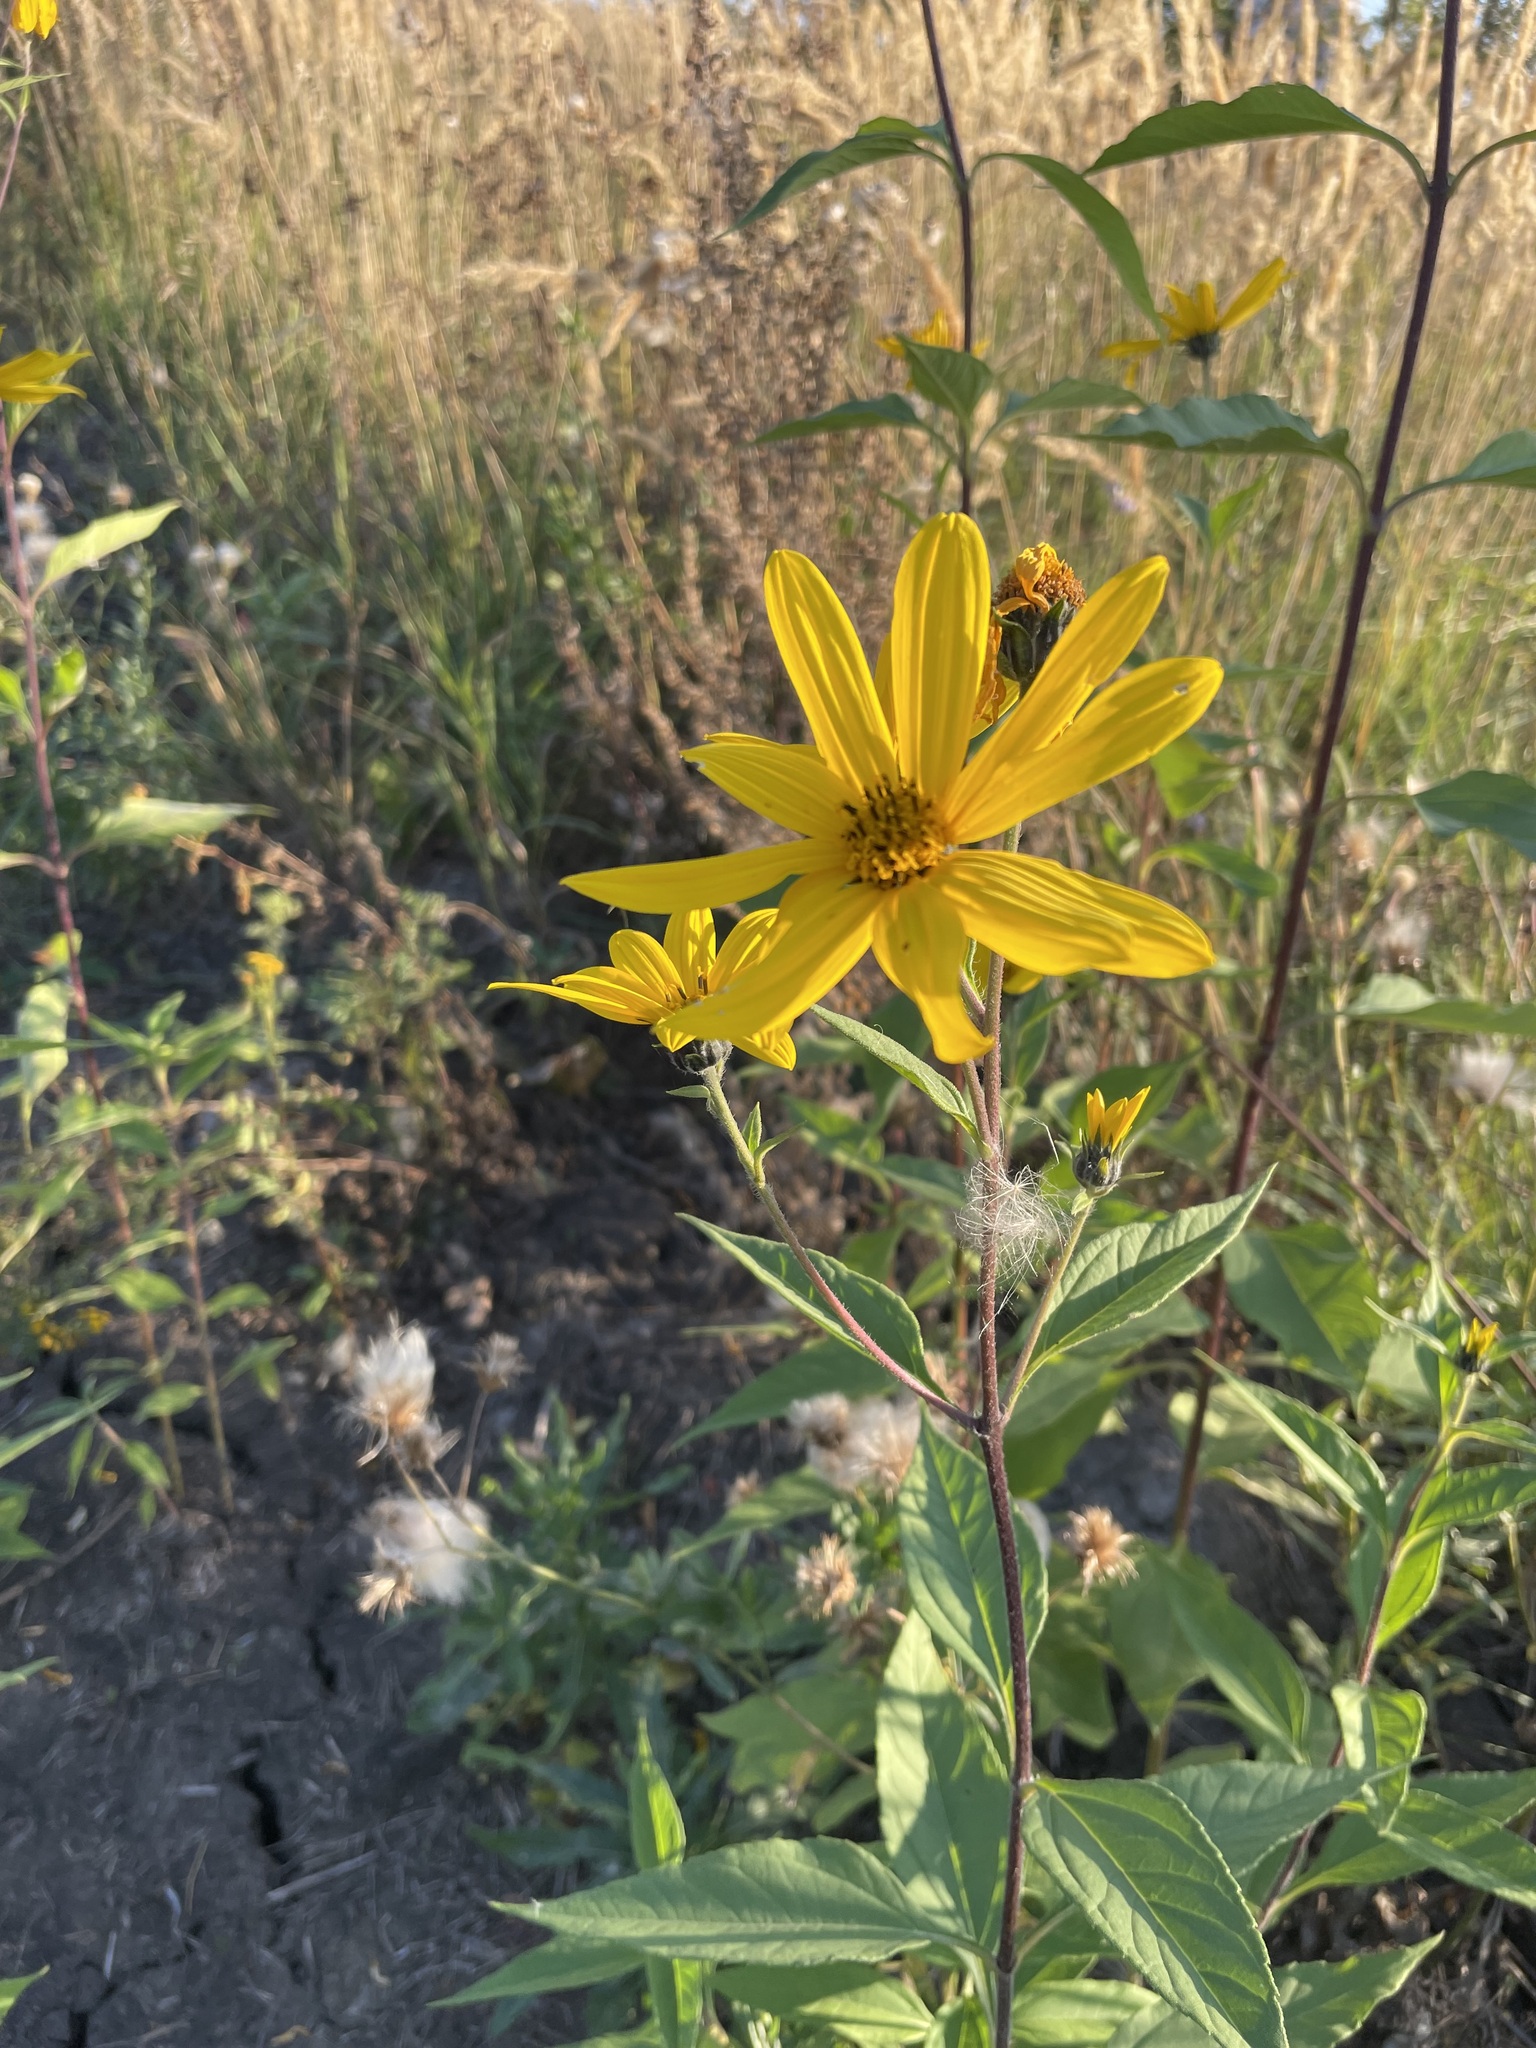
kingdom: Plantae
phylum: Tracheophyta
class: Magnoliopsida
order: Asterales
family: Asteraceae
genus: Helianthus
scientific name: Helianthus tuberosus
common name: Jerusalem artichoke
